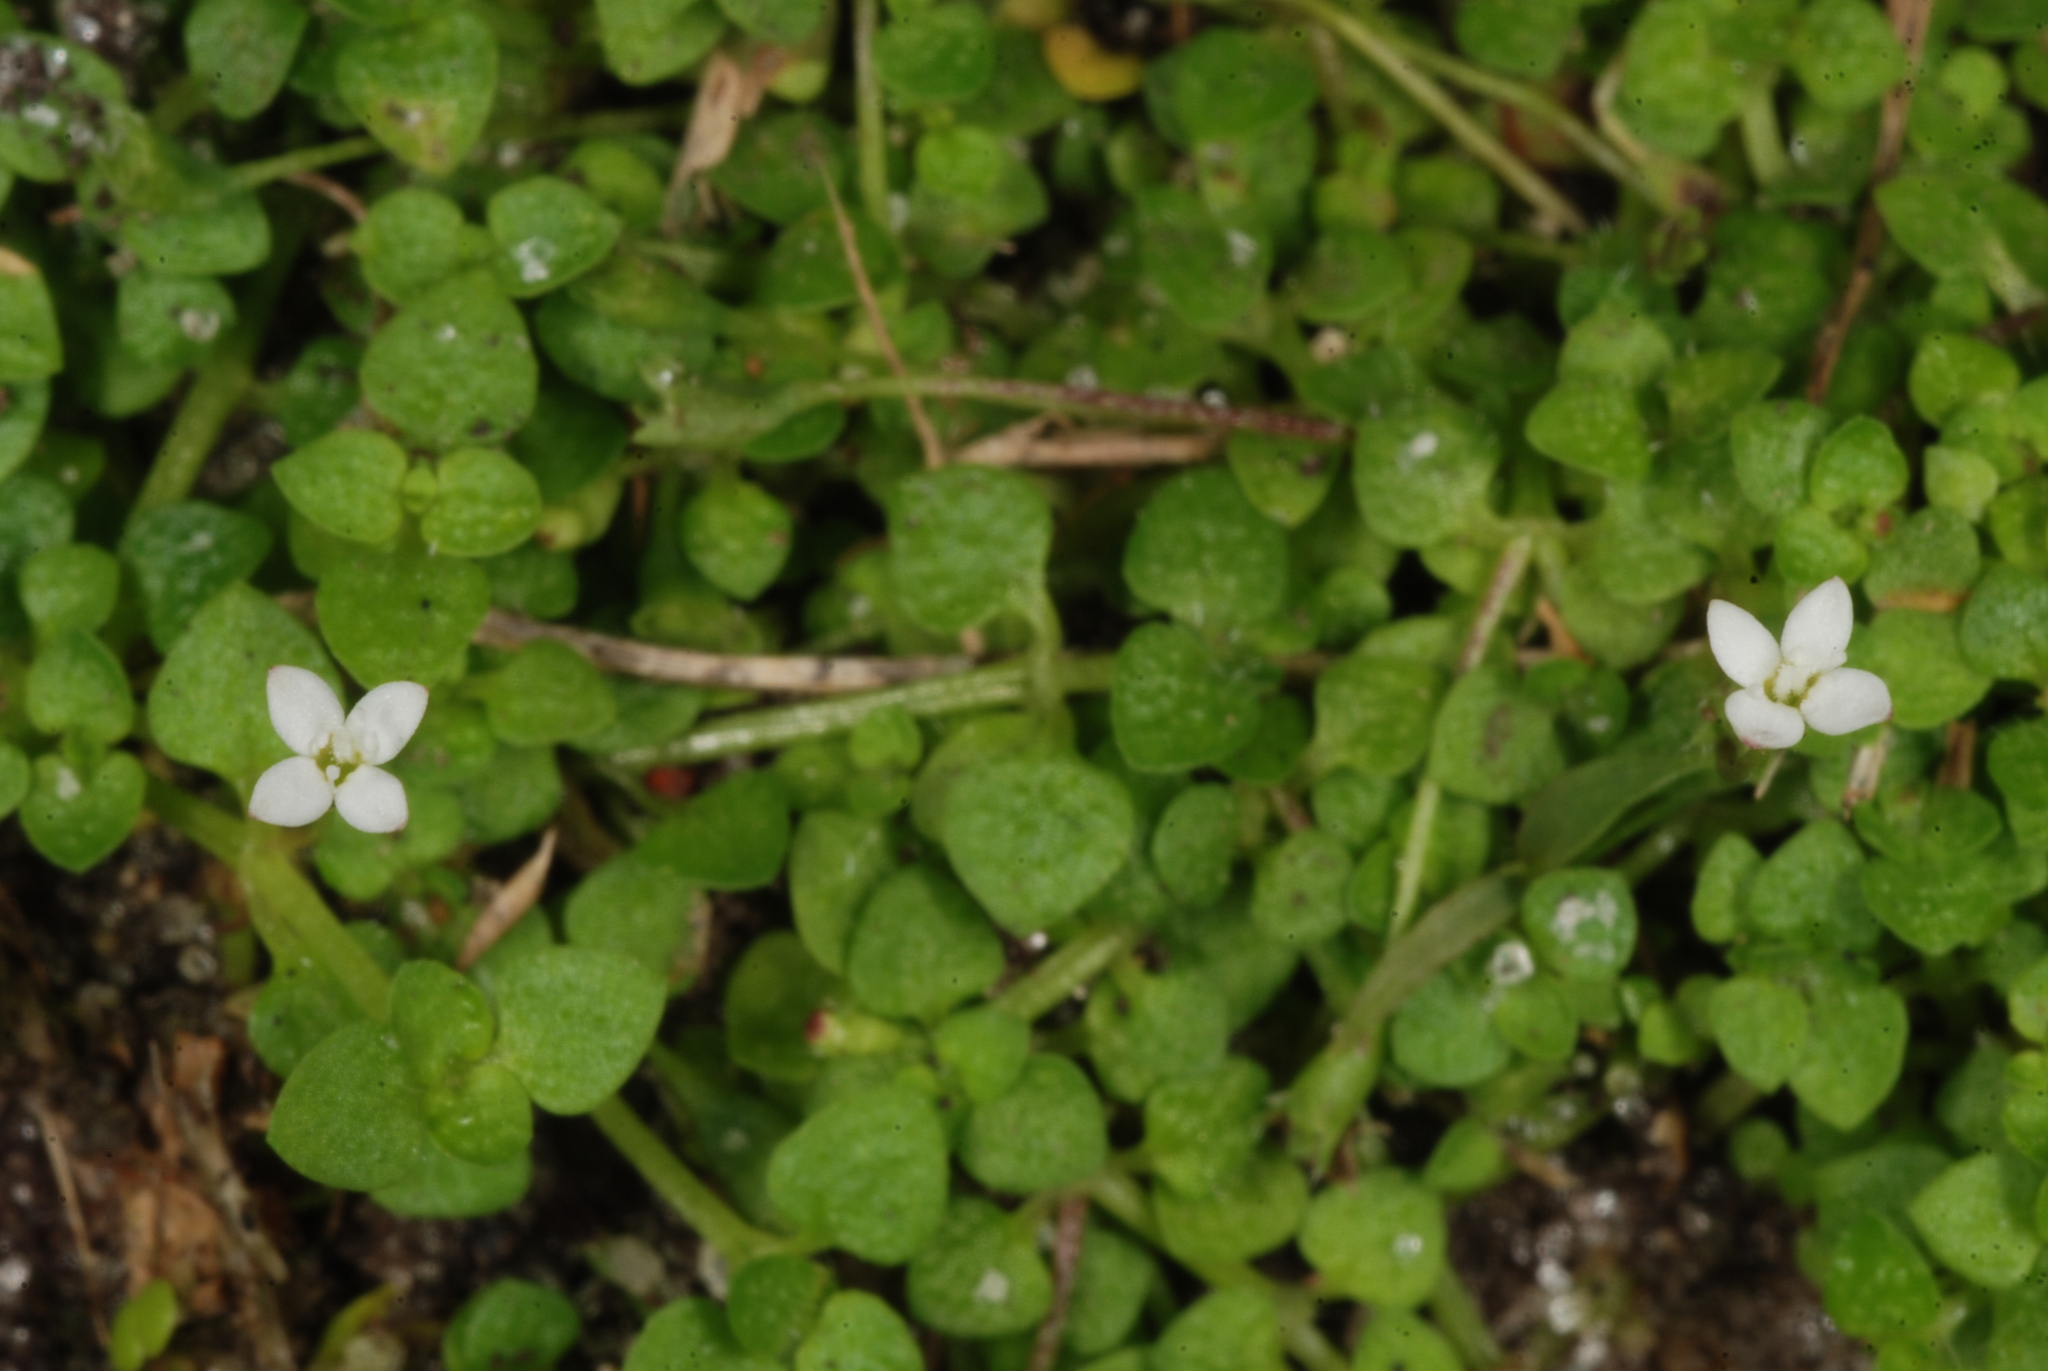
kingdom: Plantae
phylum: Tracheophyta
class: Magnoliopsida
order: Gentianales
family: Rubiaceae
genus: Oldenlandiopsis
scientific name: Oldenlandiopsis callitrichoides
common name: Creeping-bluet
